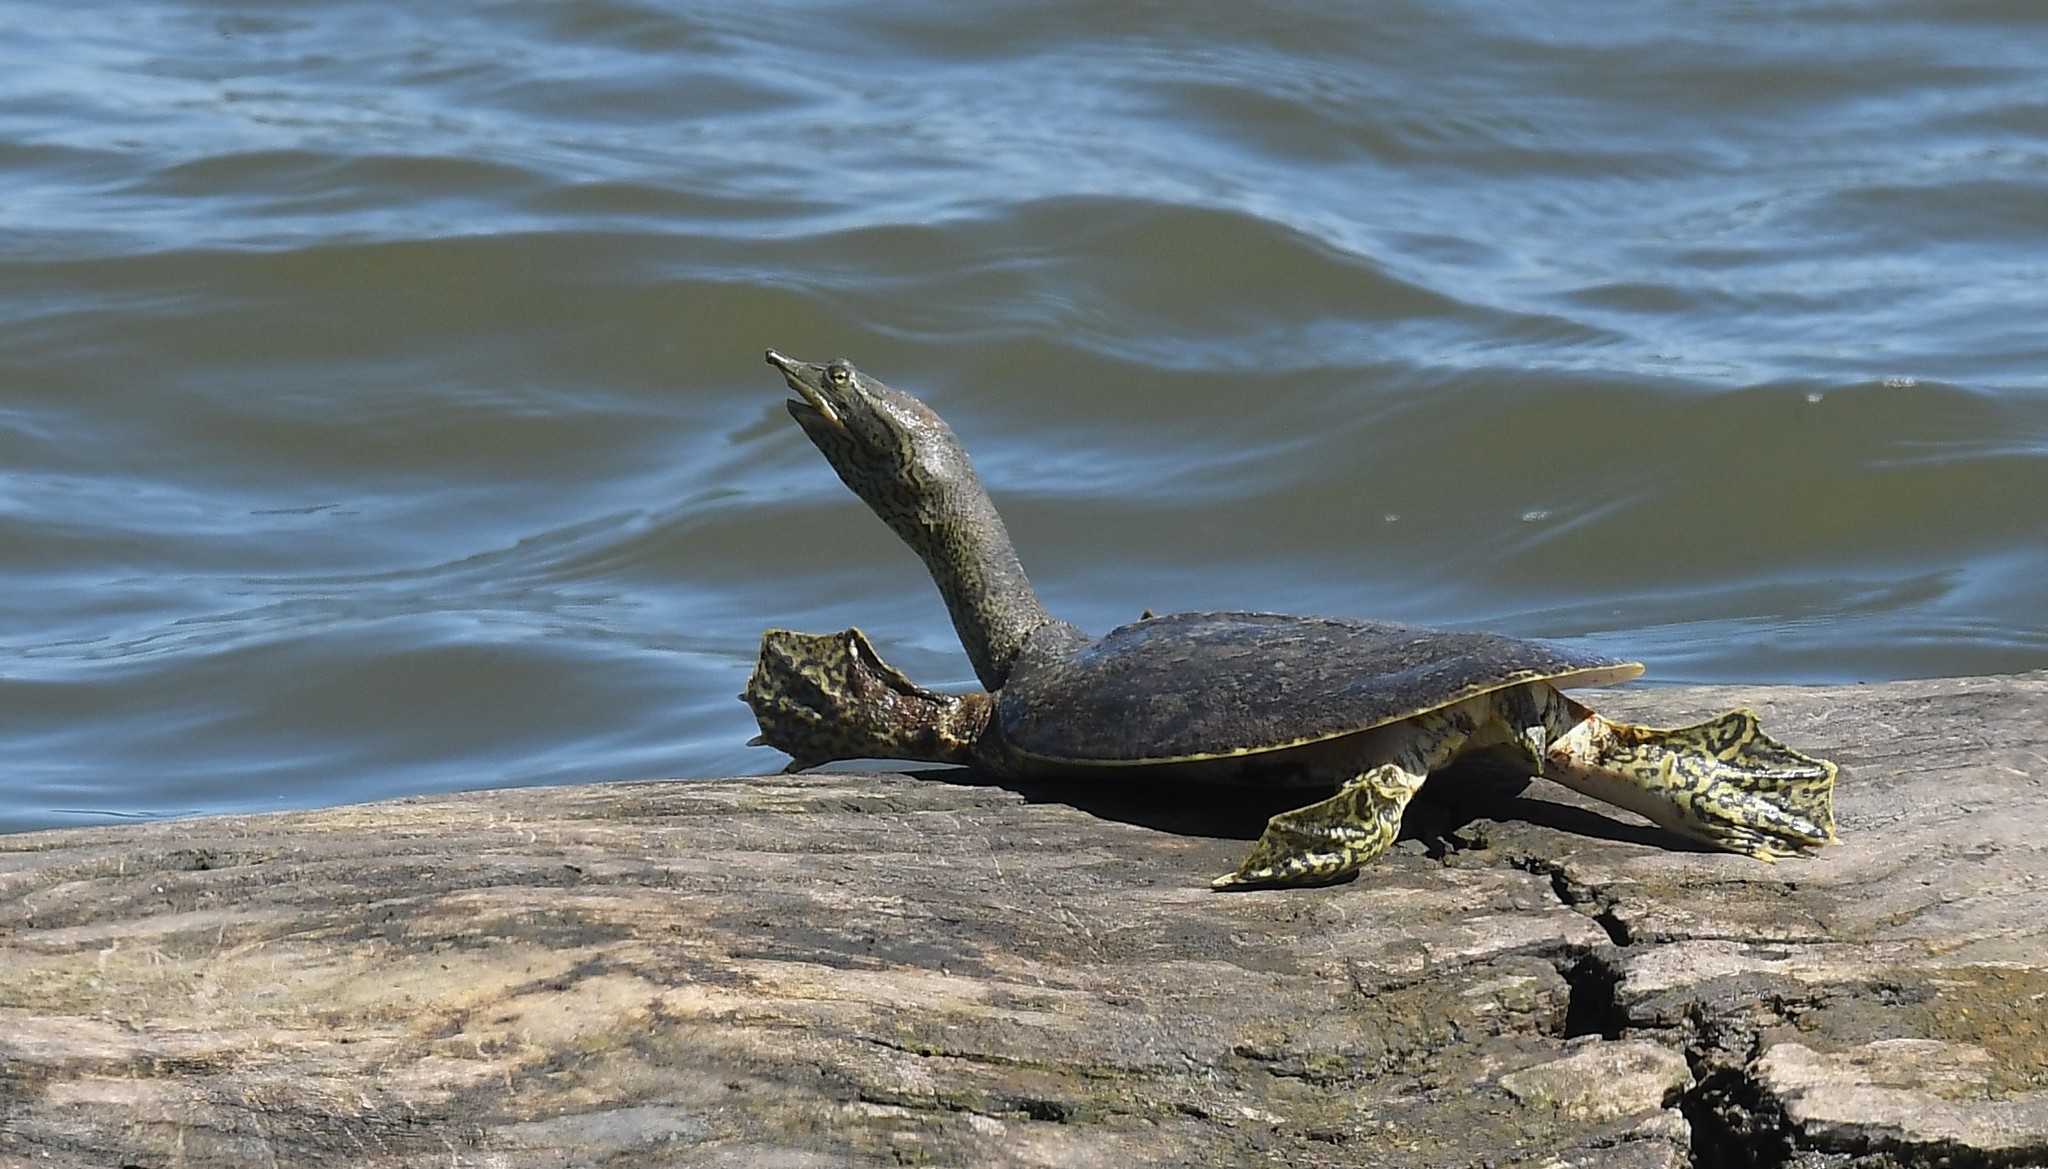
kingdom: Animalia
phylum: Chordata
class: Testudines
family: Trionychidae
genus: Apalone
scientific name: Apalone spinifera
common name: Spiny softshell turtle
